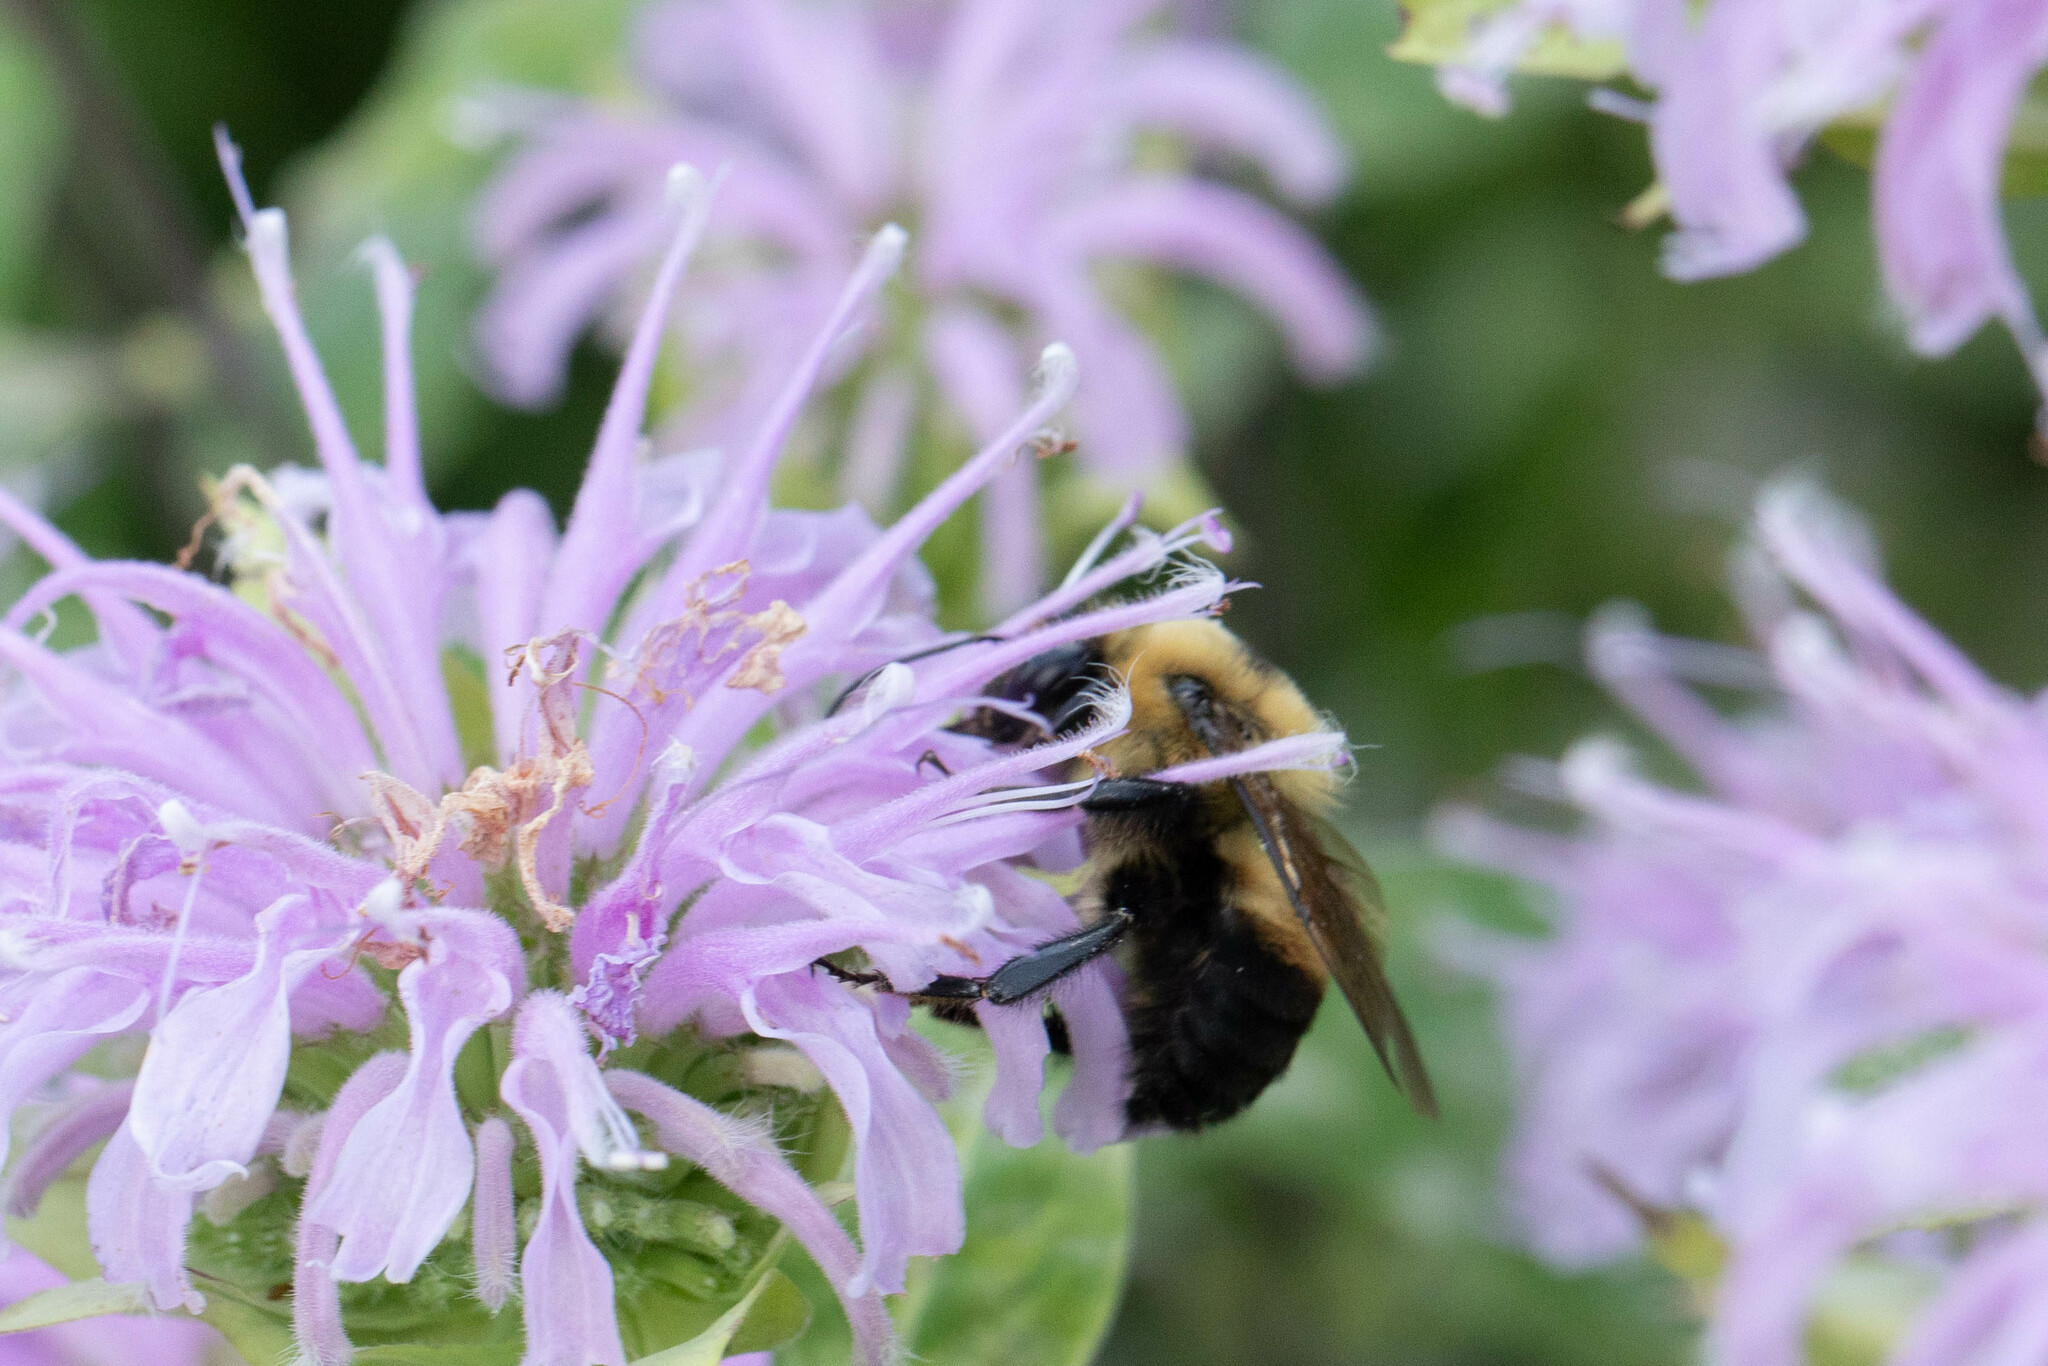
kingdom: Animalia
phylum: Arthropoda
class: Insecta
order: Hymenoptera
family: Apidae
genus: Bombus
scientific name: Bombus griseocollis
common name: Brown-belted bumble bee
